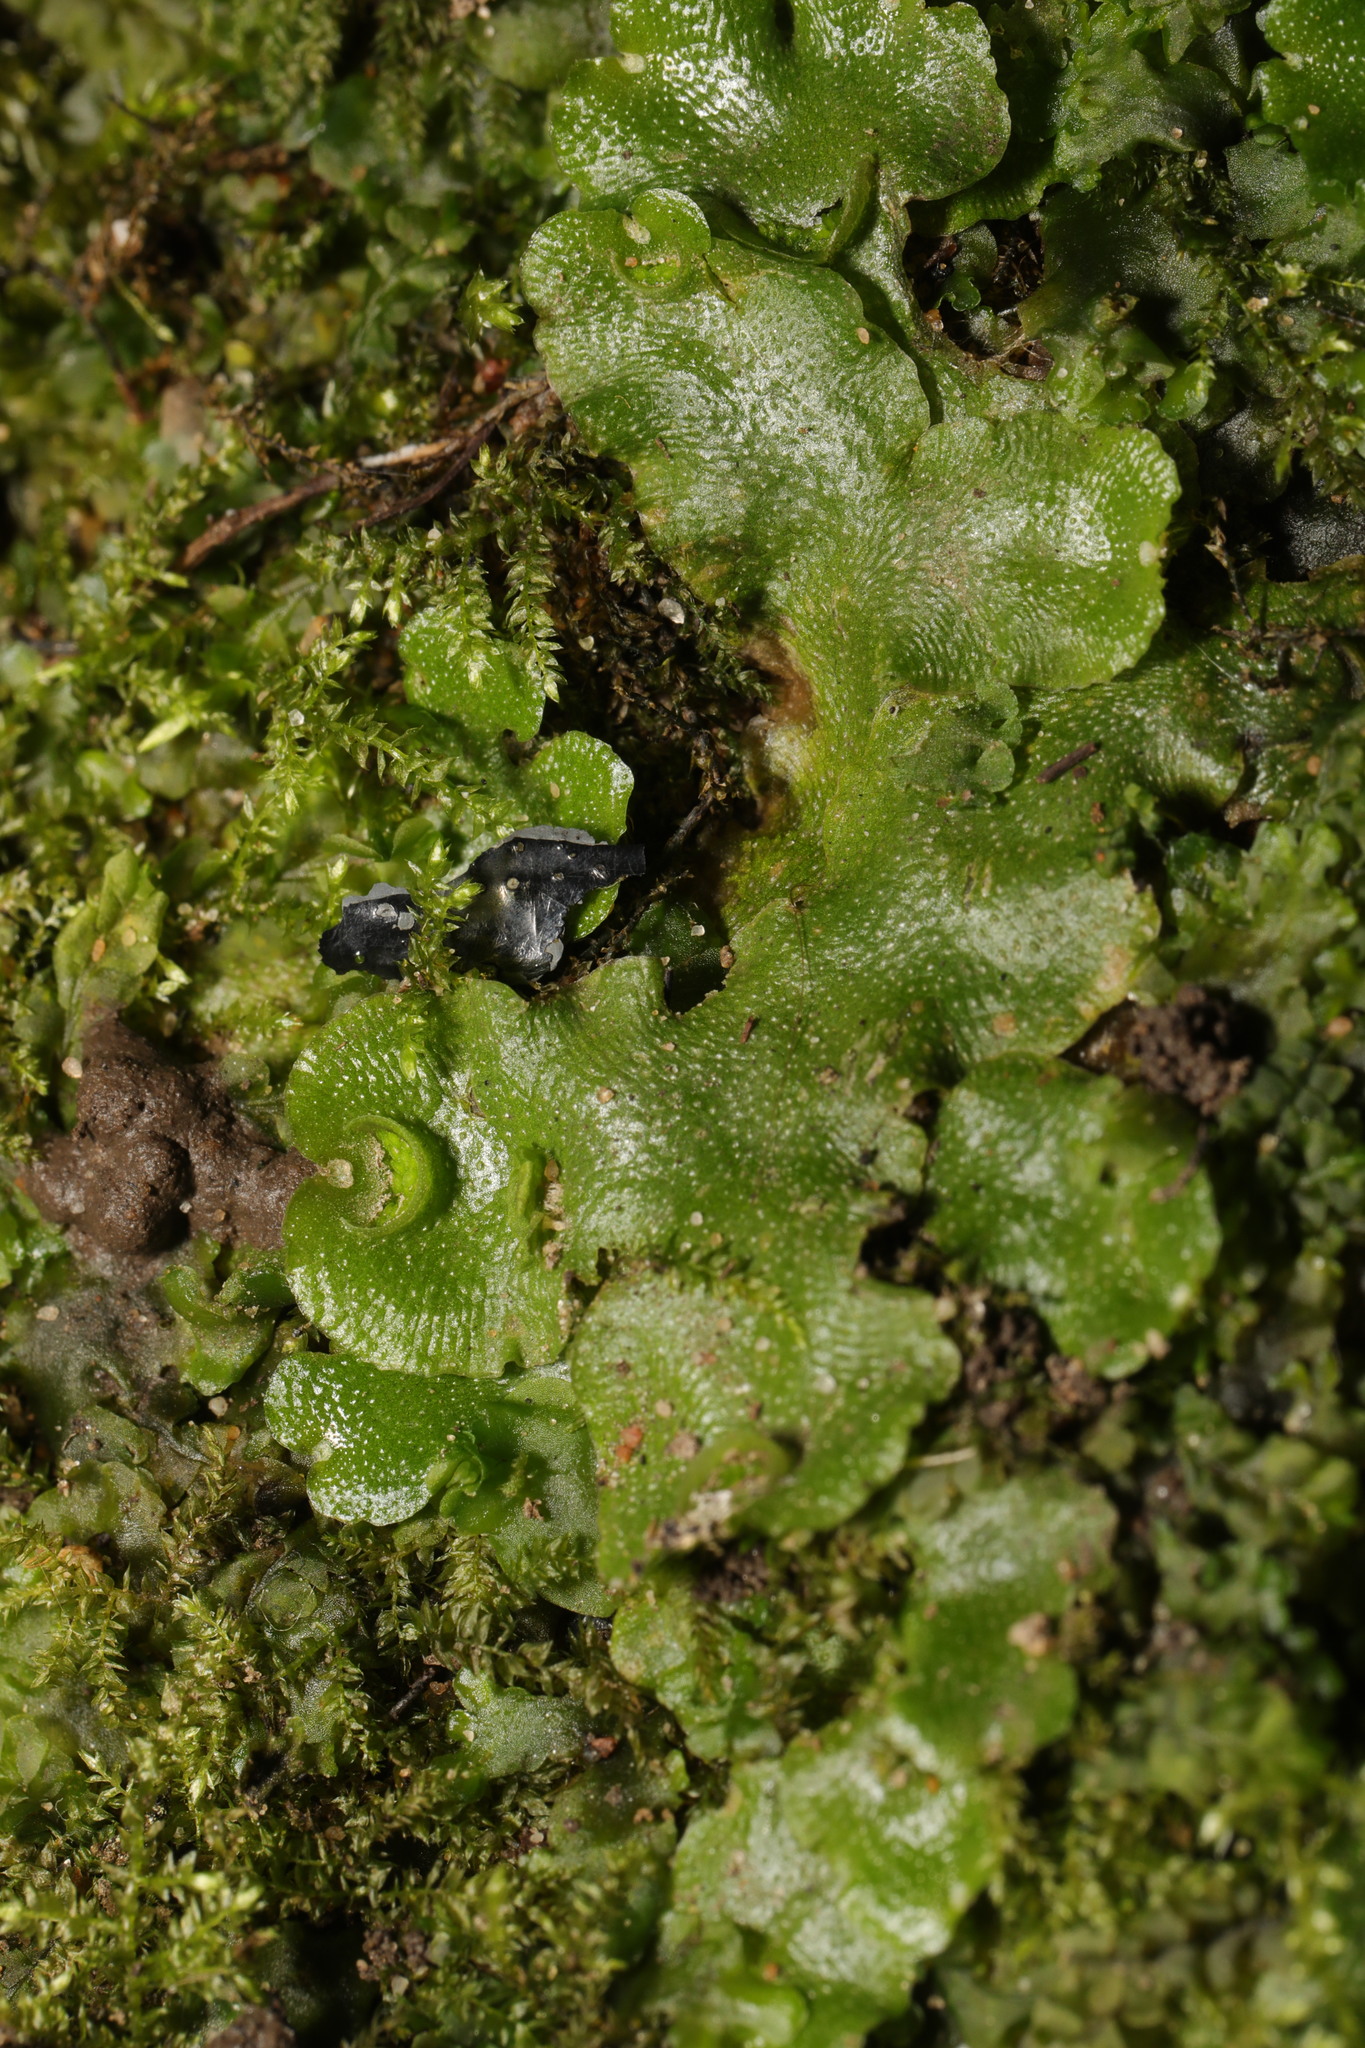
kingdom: Plantae
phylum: Marchantiophyta
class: Marchantiopsida
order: Lunulariales
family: Lunulariaceae
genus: Lunularia
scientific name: Lunularia cruciata
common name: Crescent-cup liverwort
